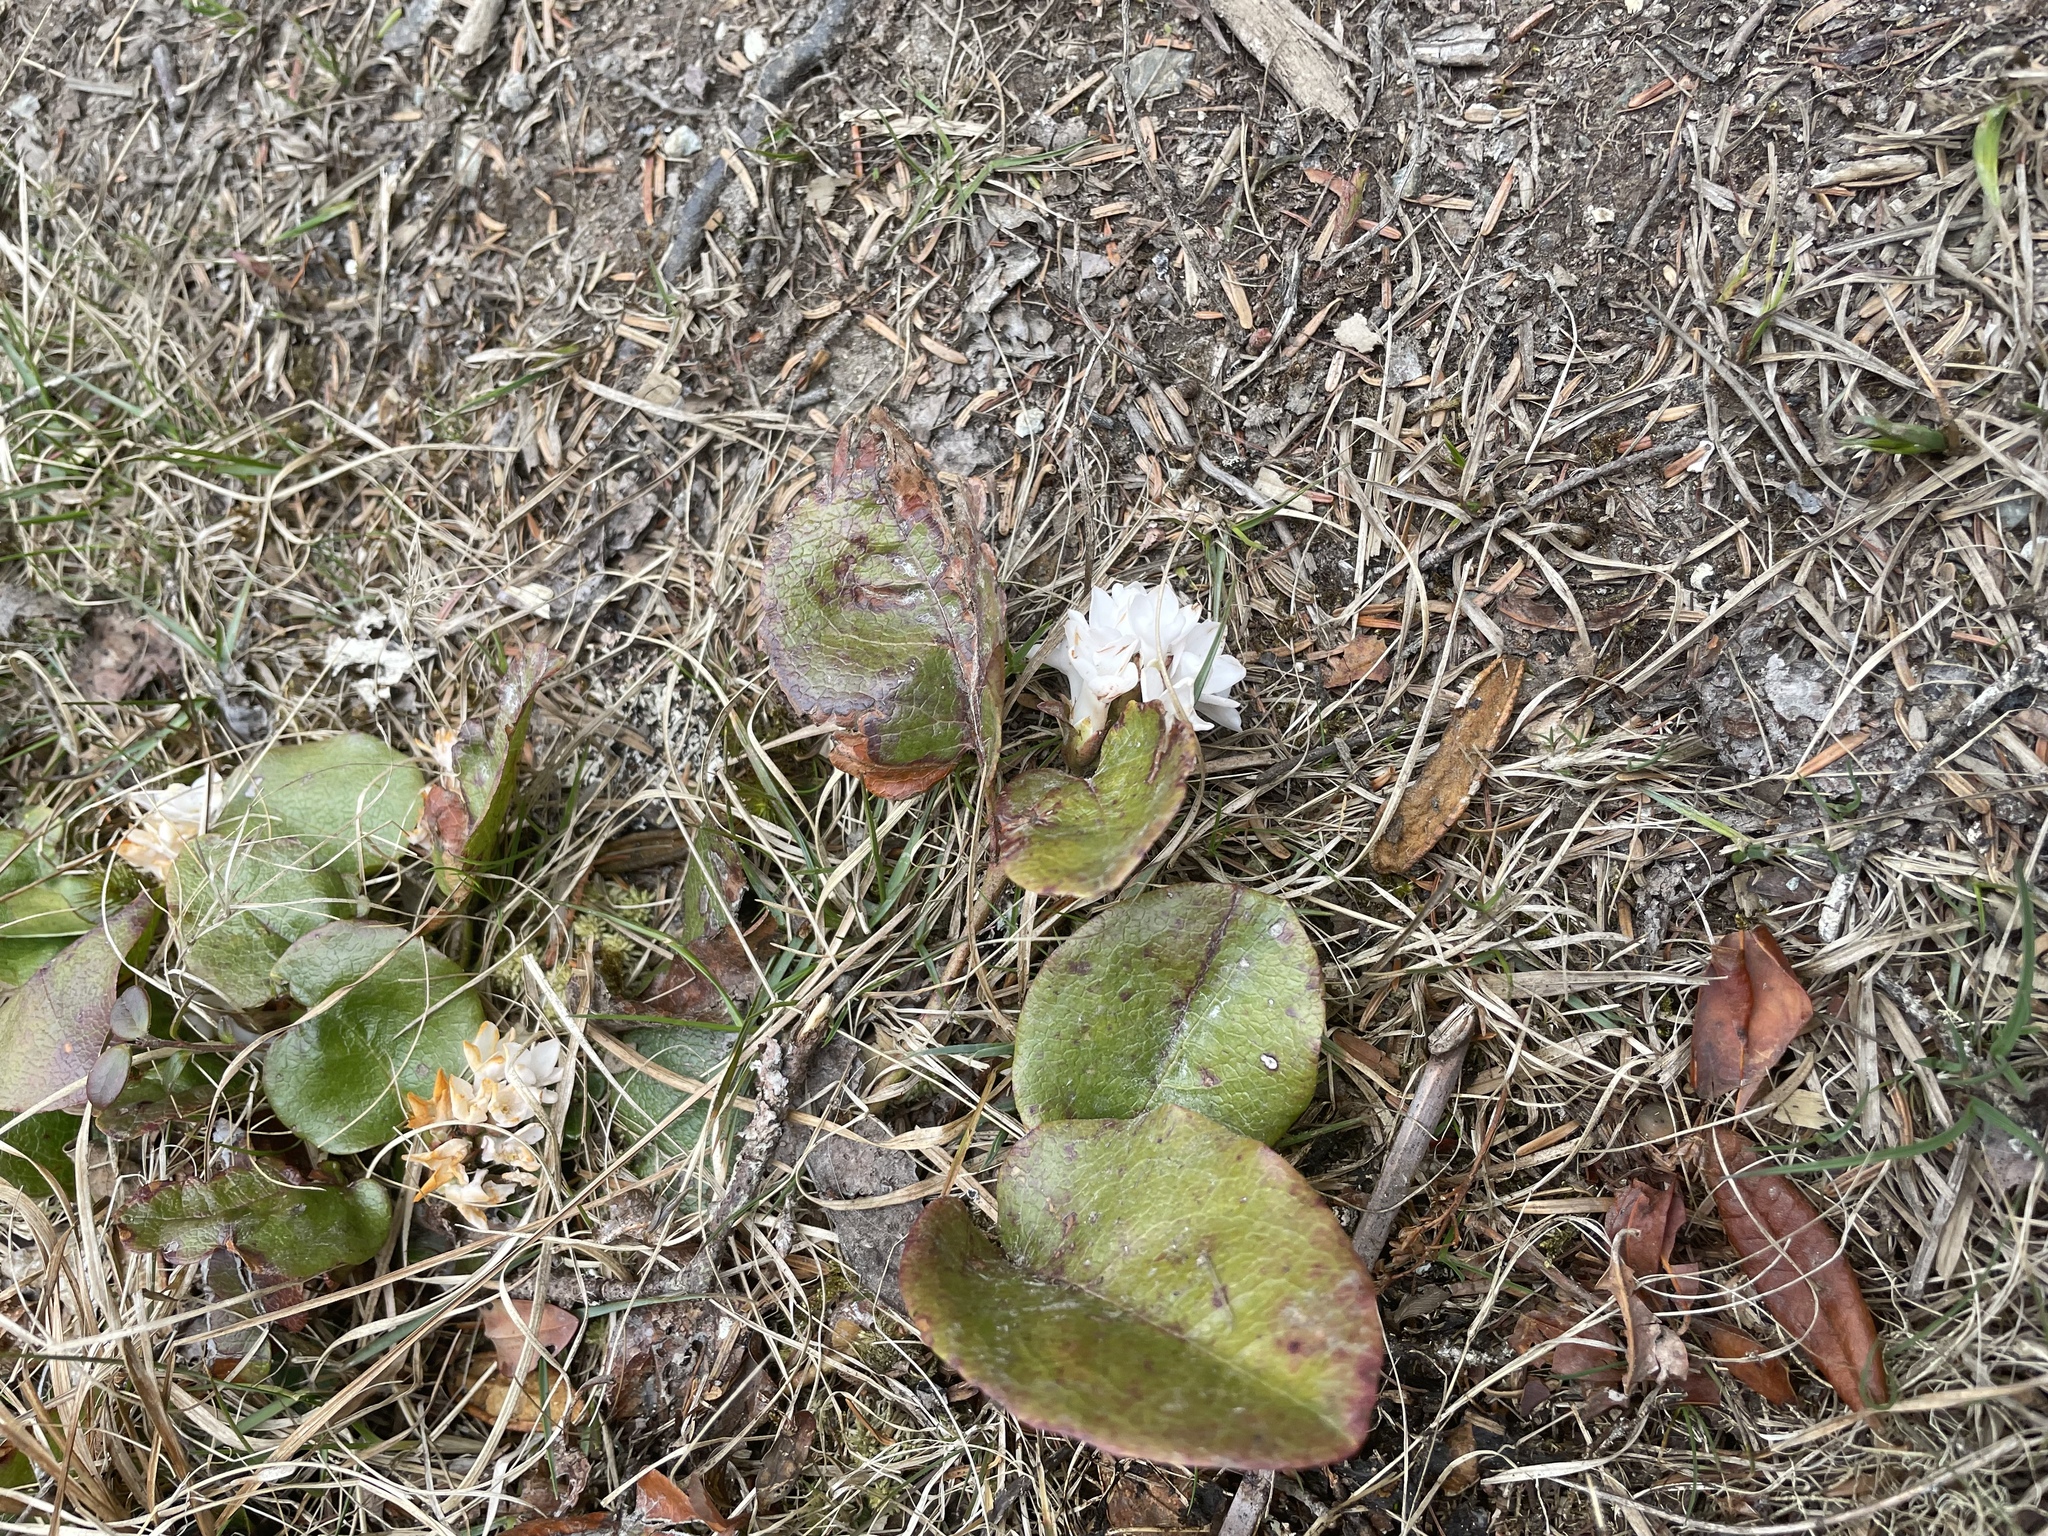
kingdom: Plantae
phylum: Tracheophyta
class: Magnoliopsida
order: Ericales
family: Ericaceae
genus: Epigaea
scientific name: Epigaea repens
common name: Gravelroot
